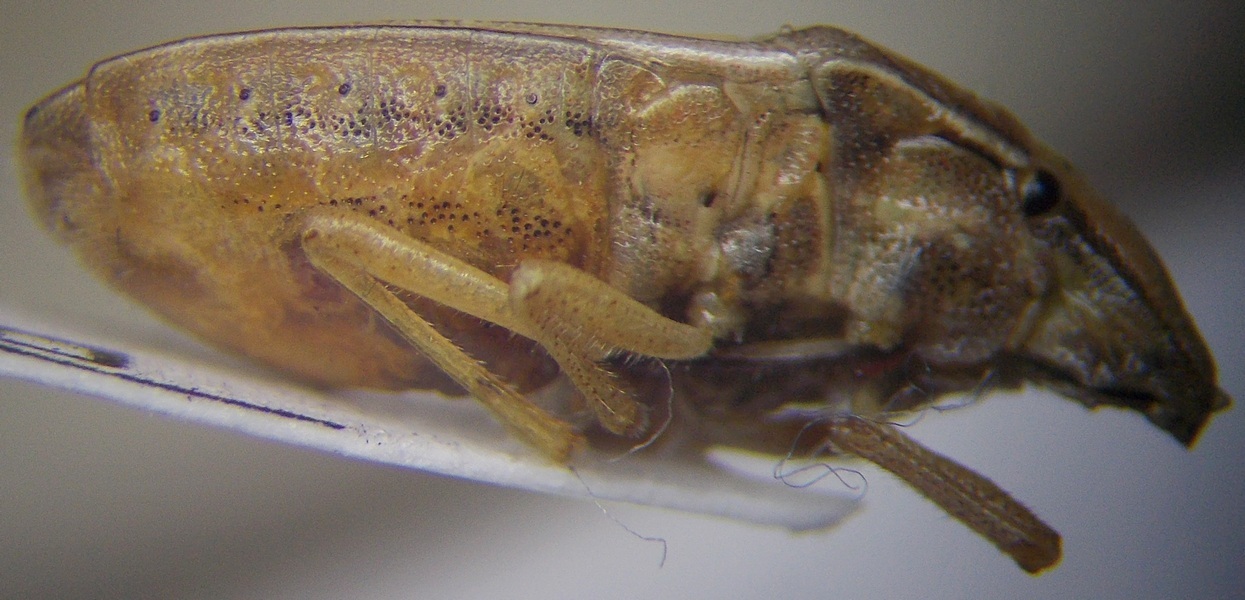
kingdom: Animalia
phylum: Arthropoda
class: Insecta
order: Hemiptera
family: Pentatomidae
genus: Aelia
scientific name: Aelia furcula
